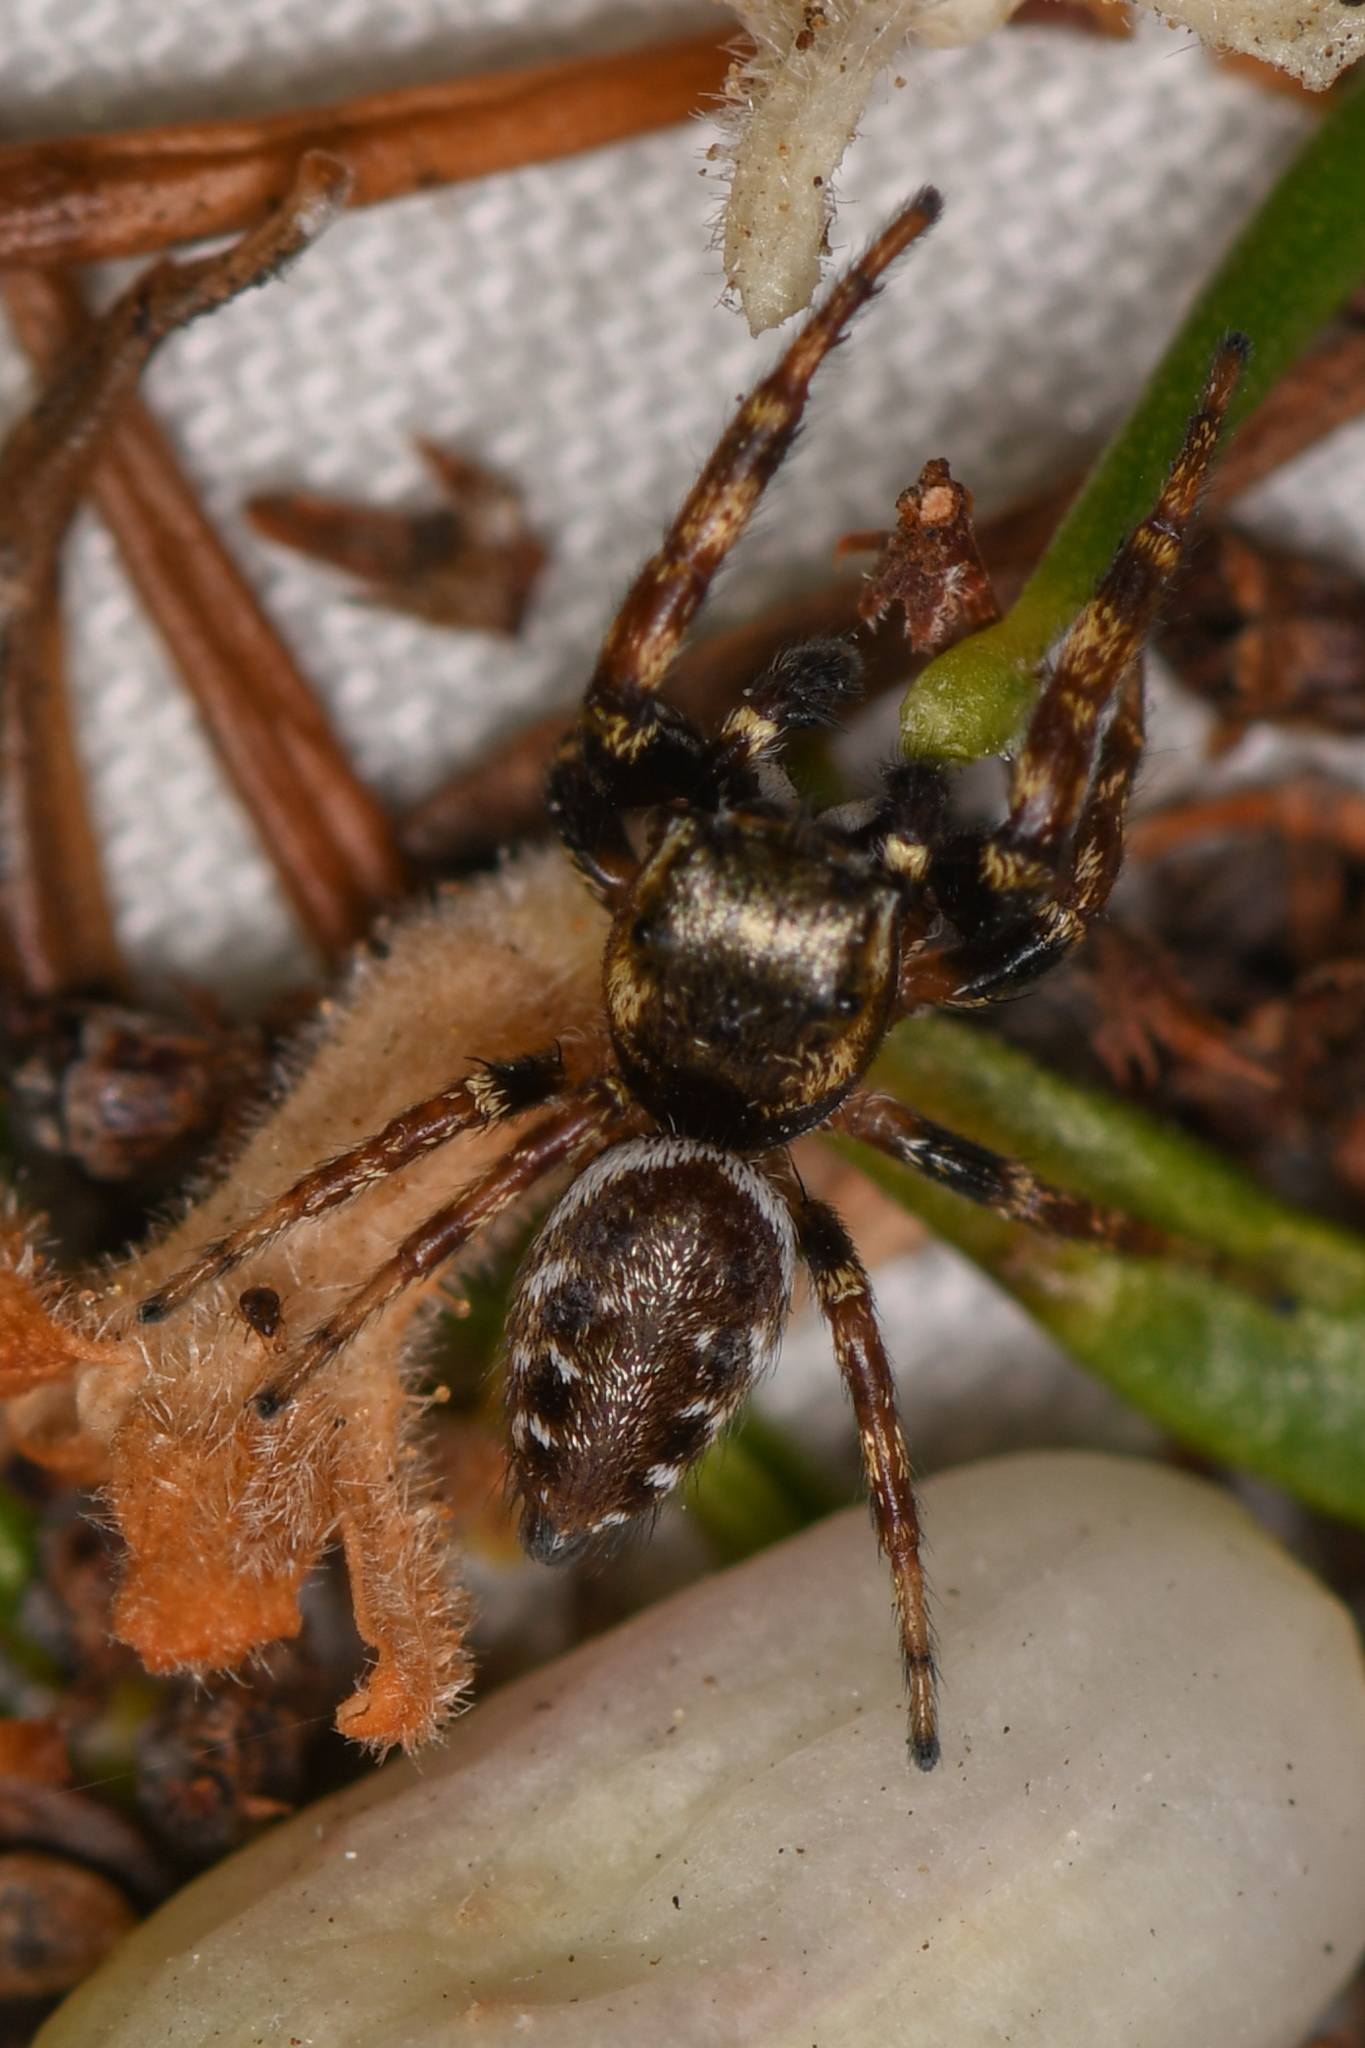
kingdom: Animalia
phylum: Arthropoda
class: Arachnida
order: Araneae
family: Salticidae
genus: Metaphidippus
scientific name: Metaphidippus manni
